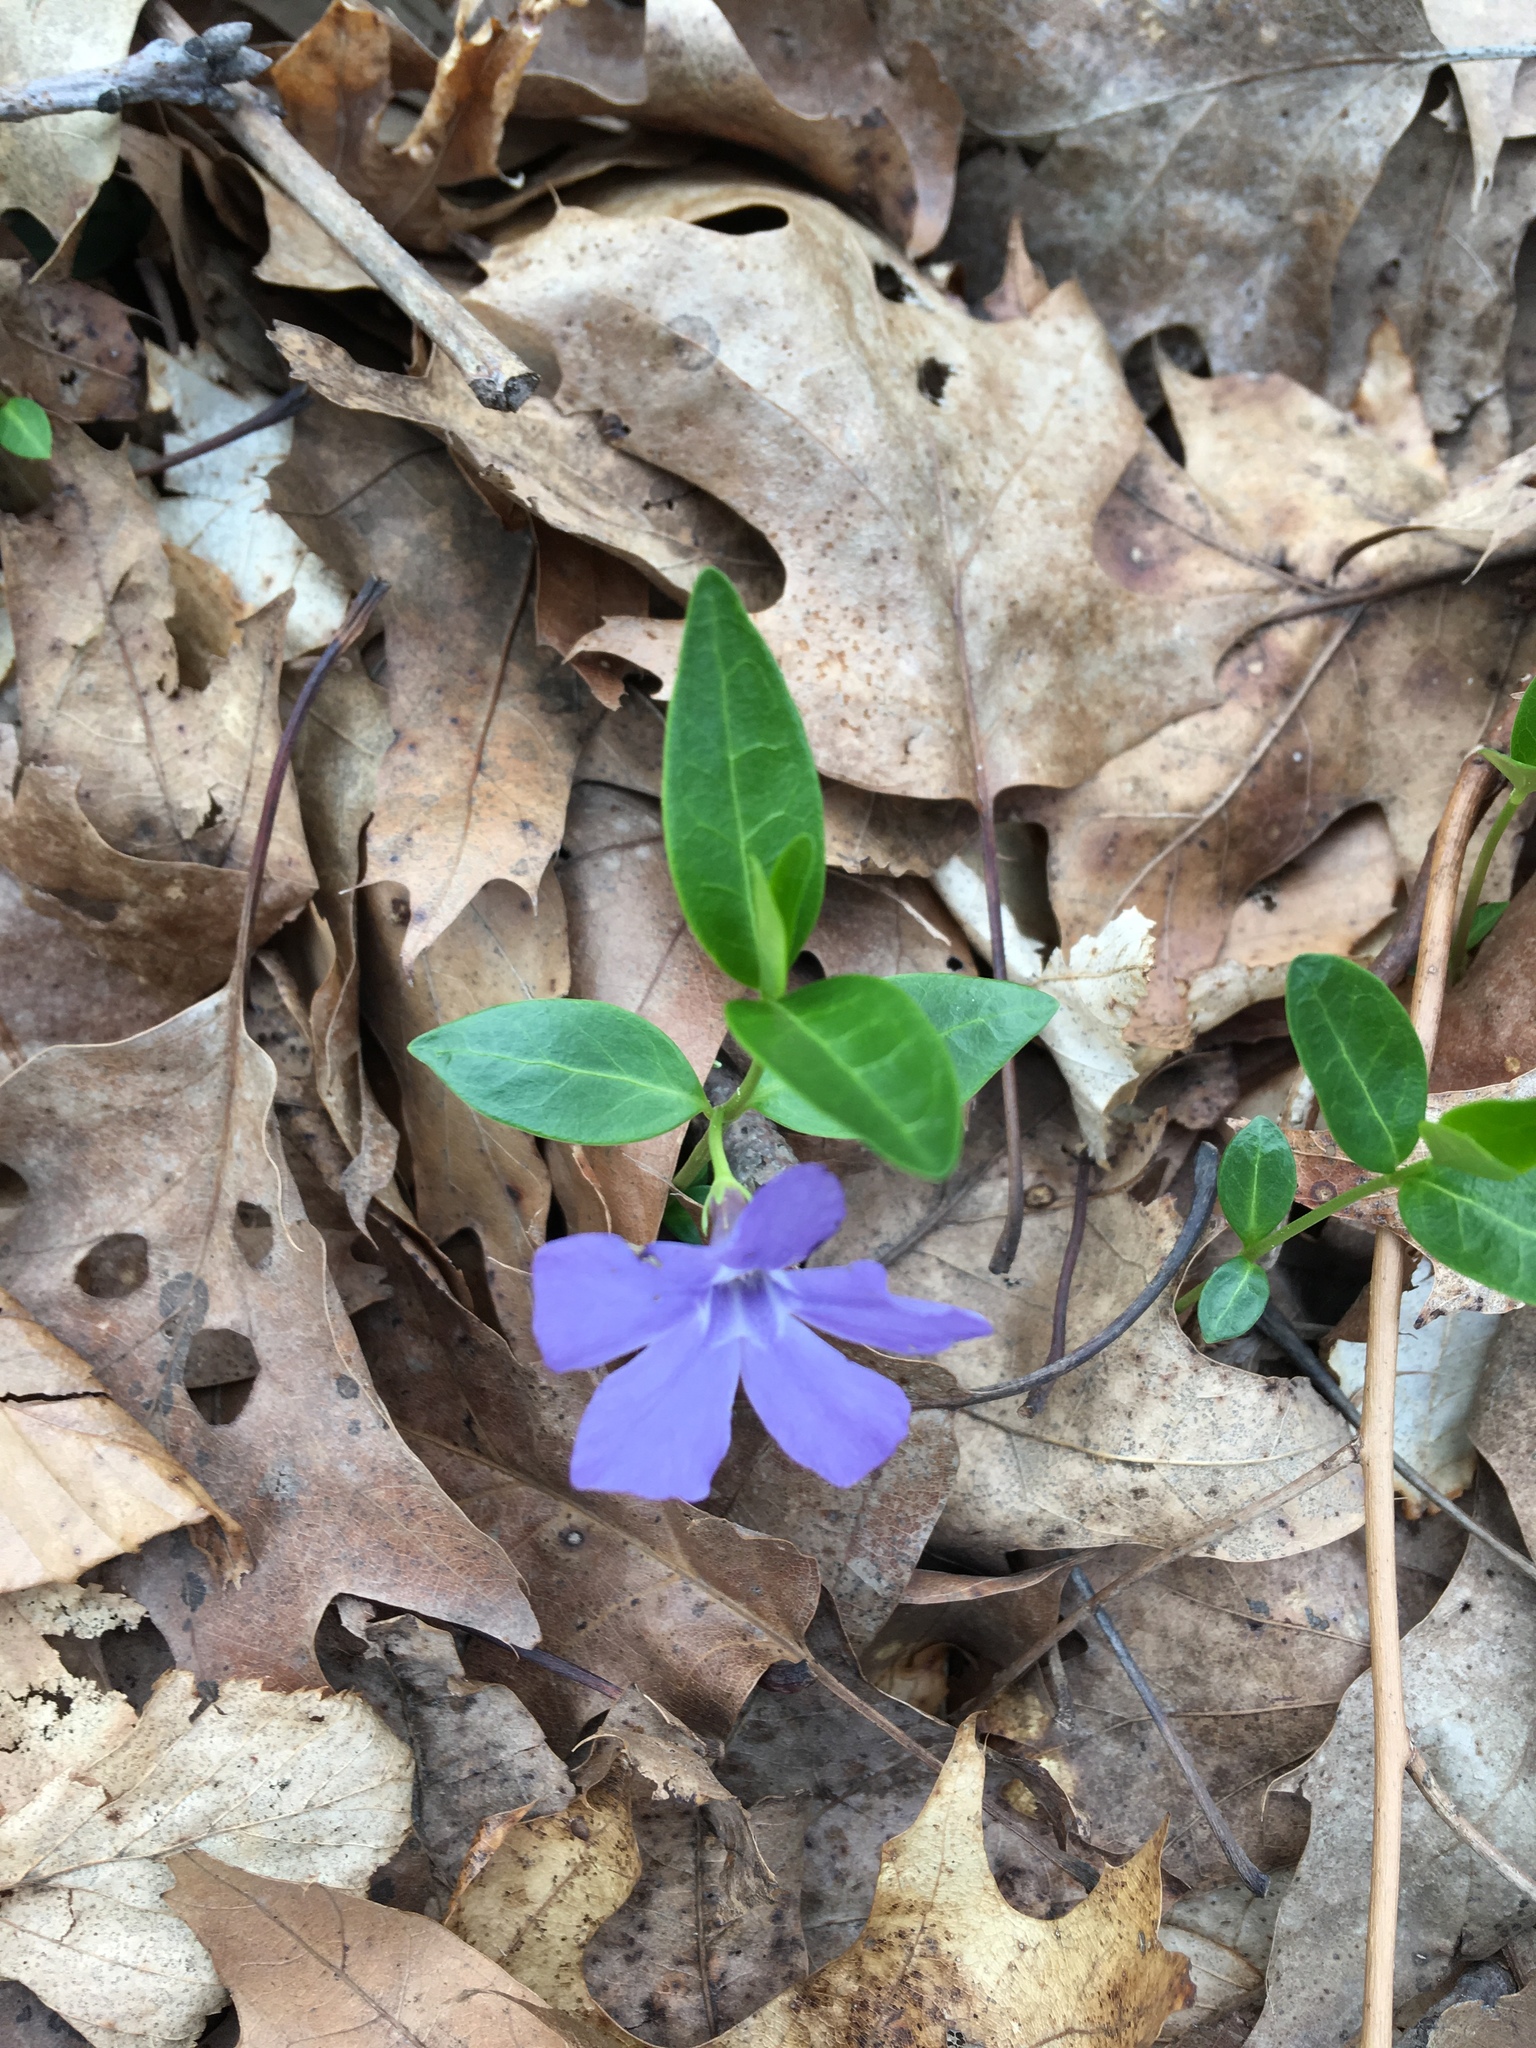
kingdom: Plantae
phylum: Tracheophyta
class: Magnoliopsida
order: Gentianales
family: Apocynaceae
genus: Vinca
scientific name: Vinca minor
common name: Lesser periwinkle
